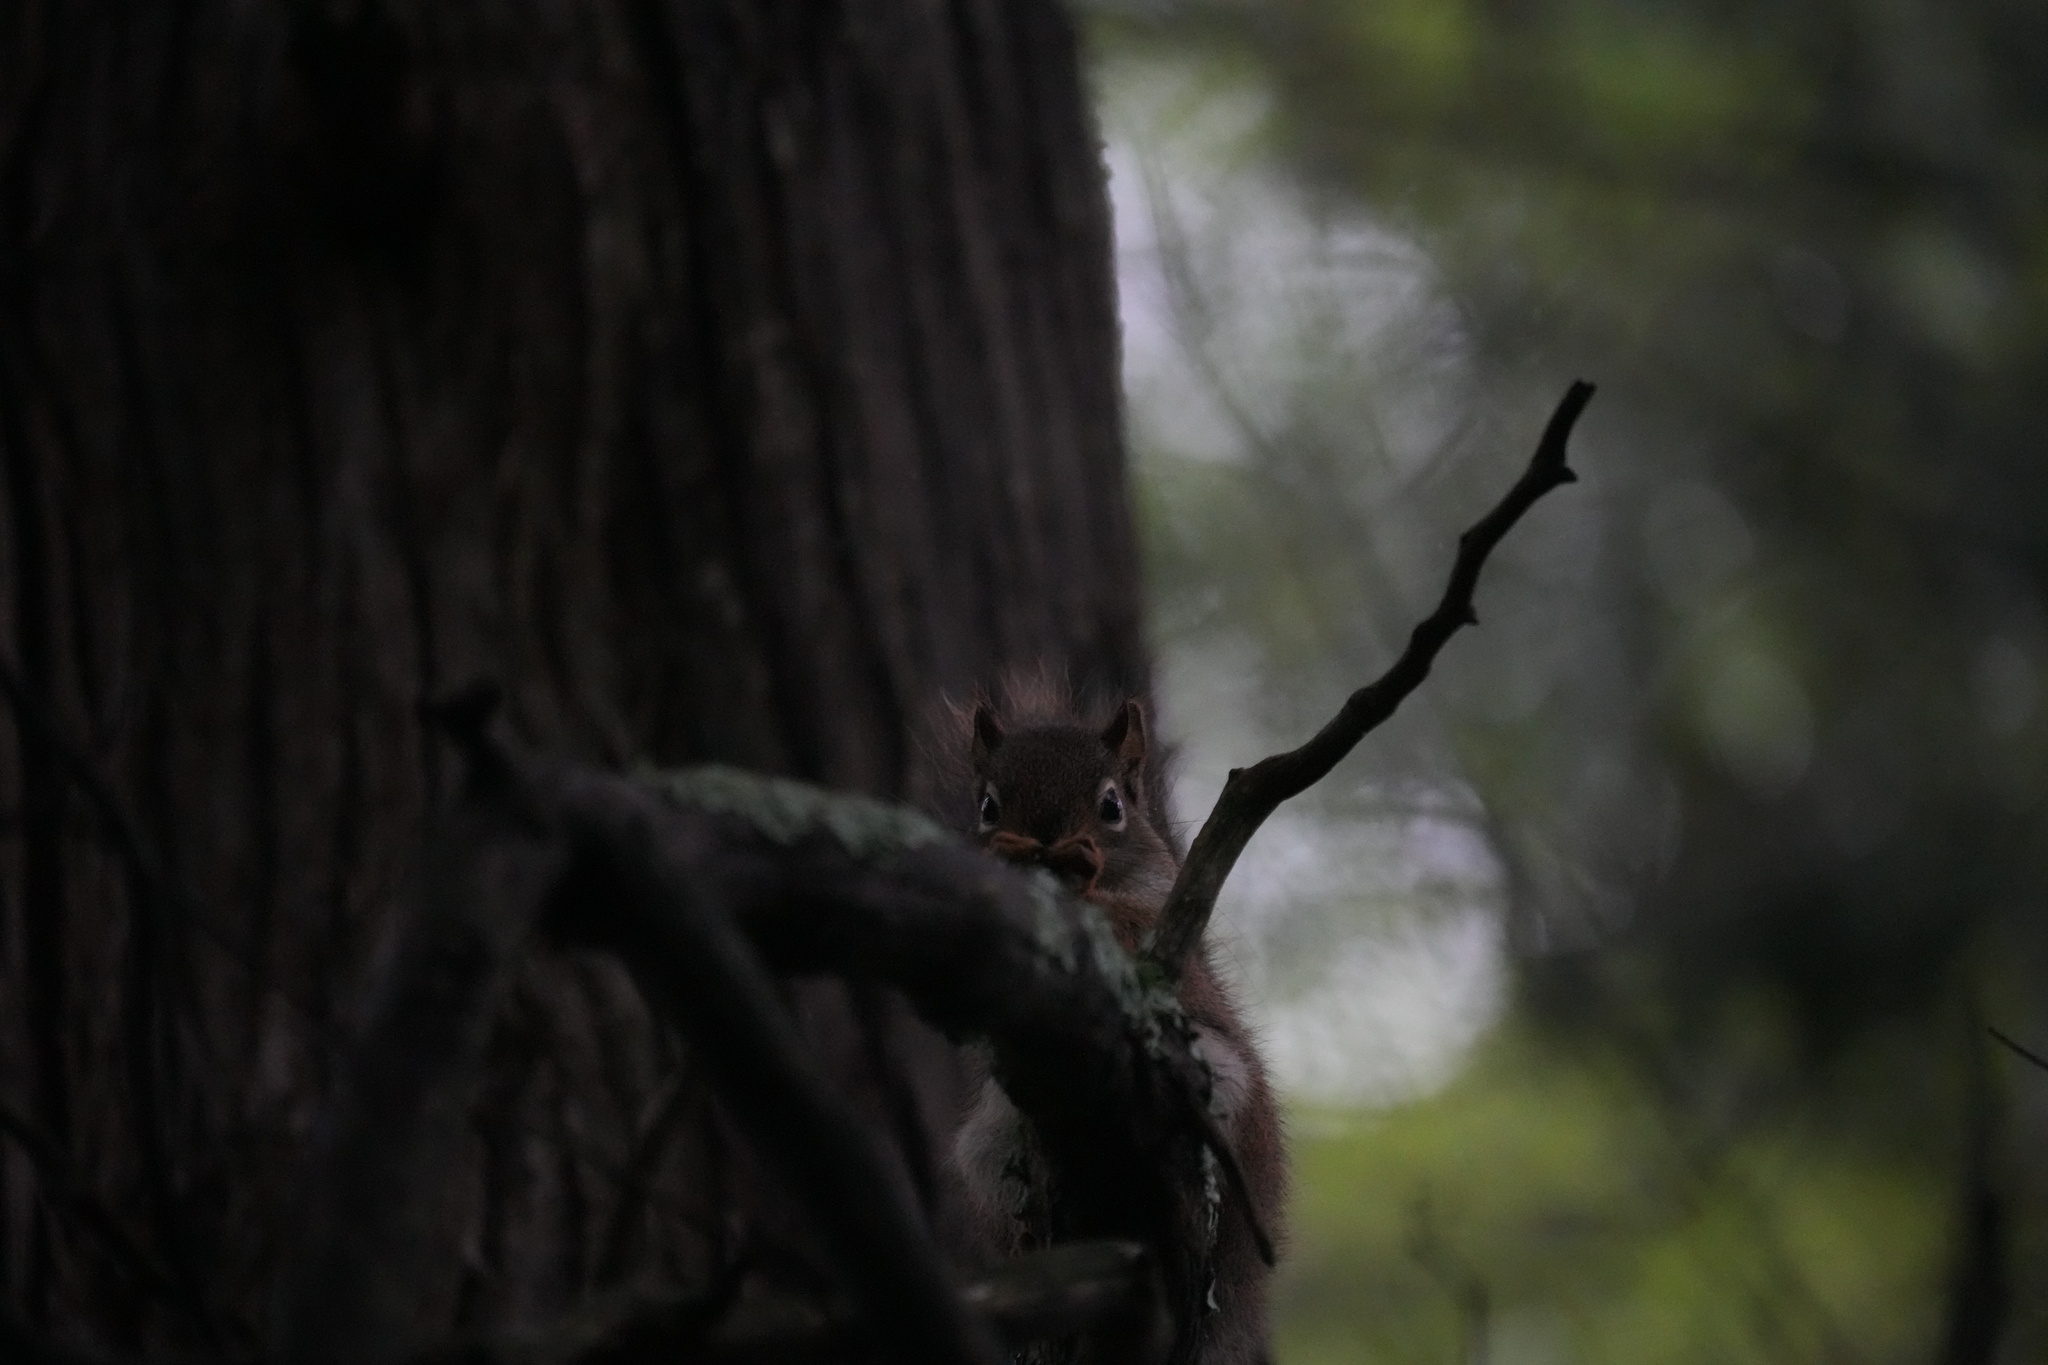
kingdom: Animalia
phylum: Chordata
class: Mammalia
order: Rodentia
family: Sciuridae
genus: Tamiasciurus
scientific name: Tamiasciurus hudsonicus
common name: Red squirrel
